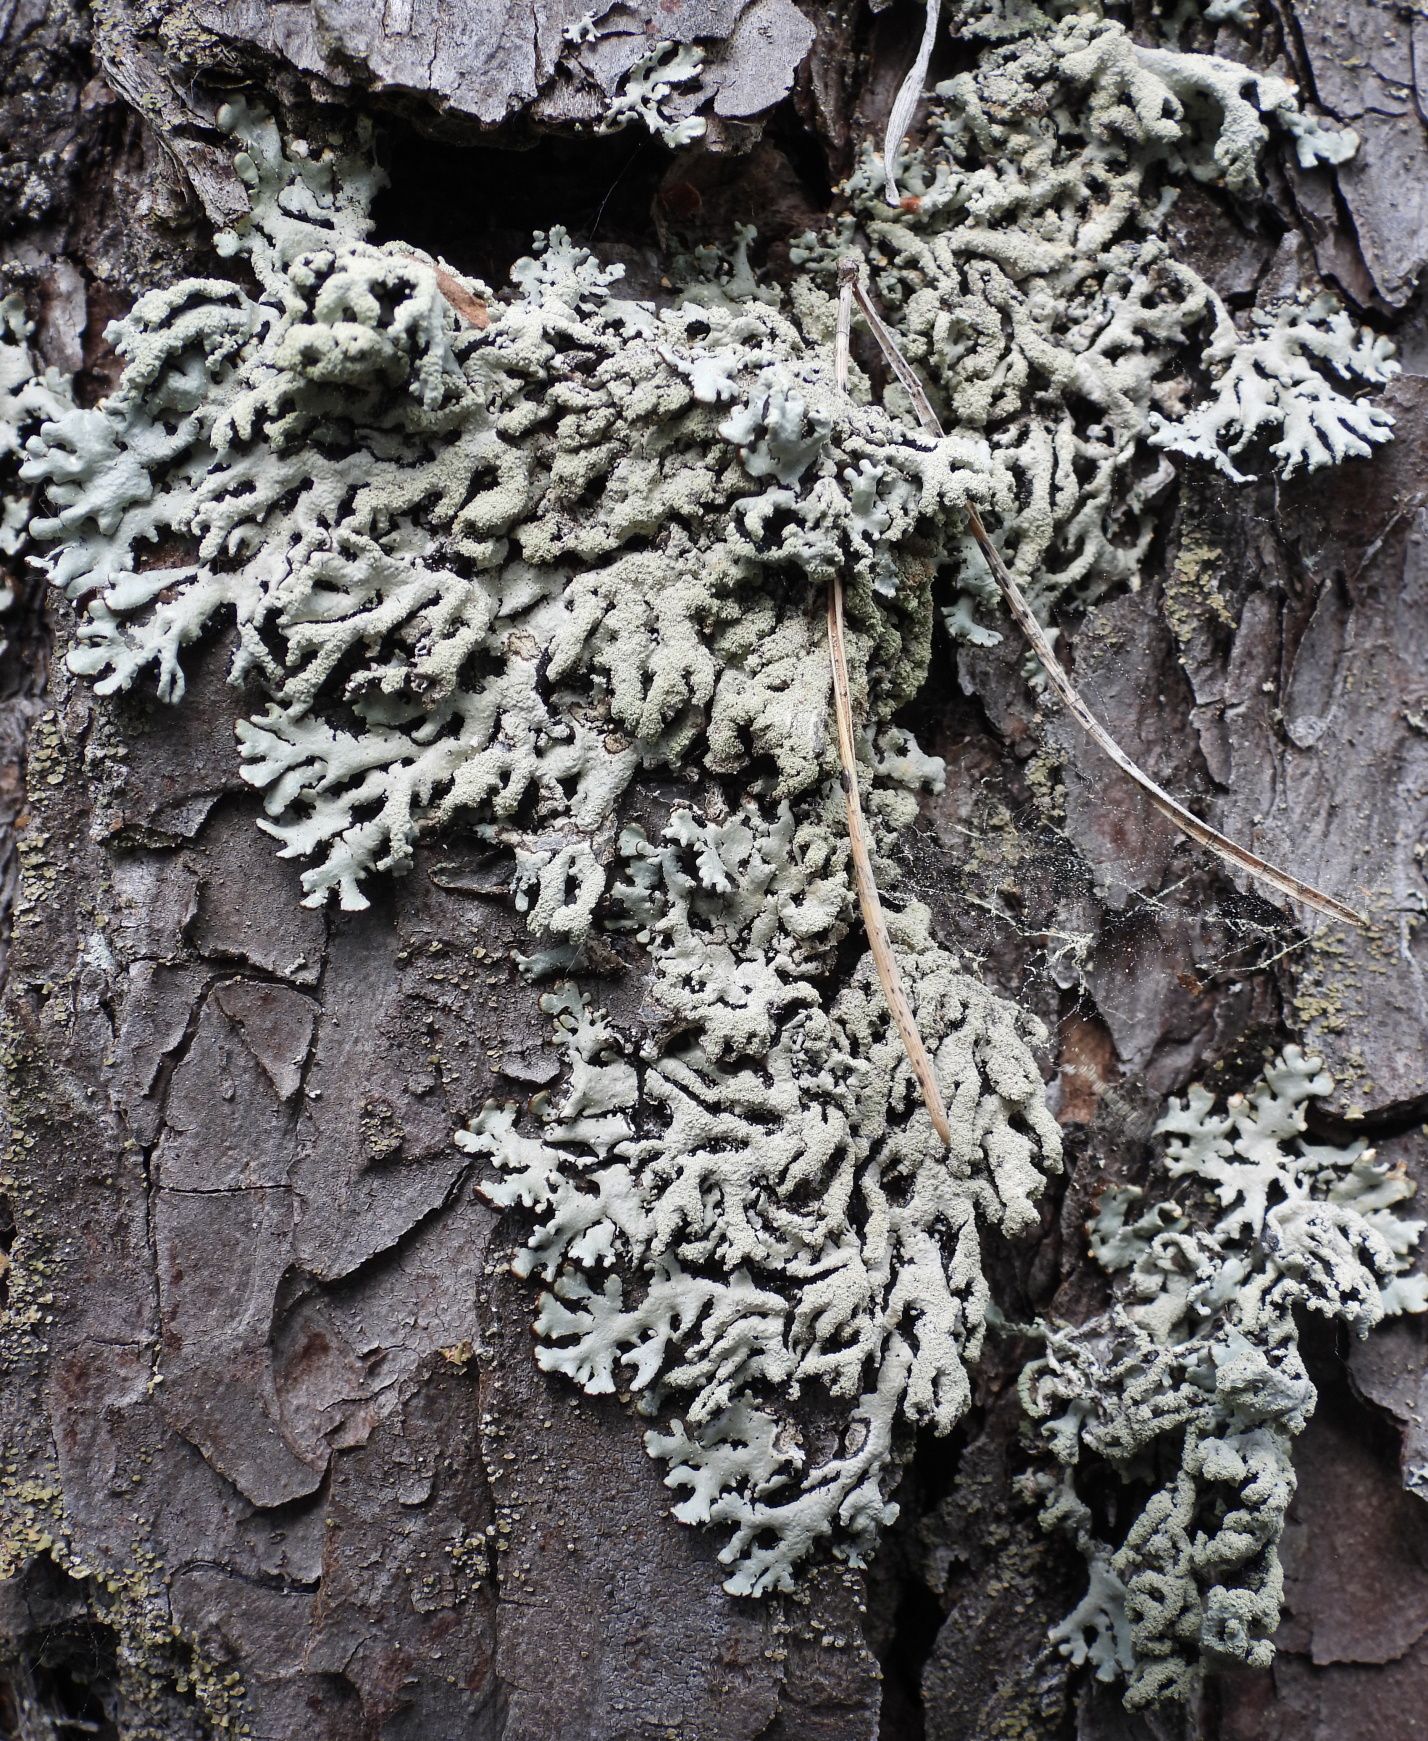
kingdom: Fungi
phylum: Ascomycota
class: Lecanoromycetes
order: Lecanorales
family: Parmeliaceae
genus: Hypogymnia
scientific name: Hypogymnia farinacea
